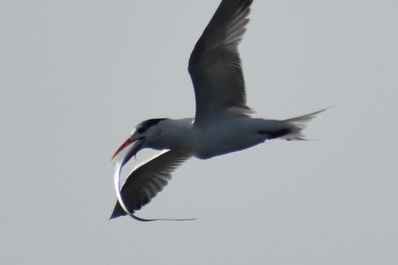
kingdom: Animalia
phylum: Chordata
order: Perciformes
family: Trichiuridae
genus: Trichiurus
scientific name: Trichiurus lepturus
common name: Largehead hairtail
